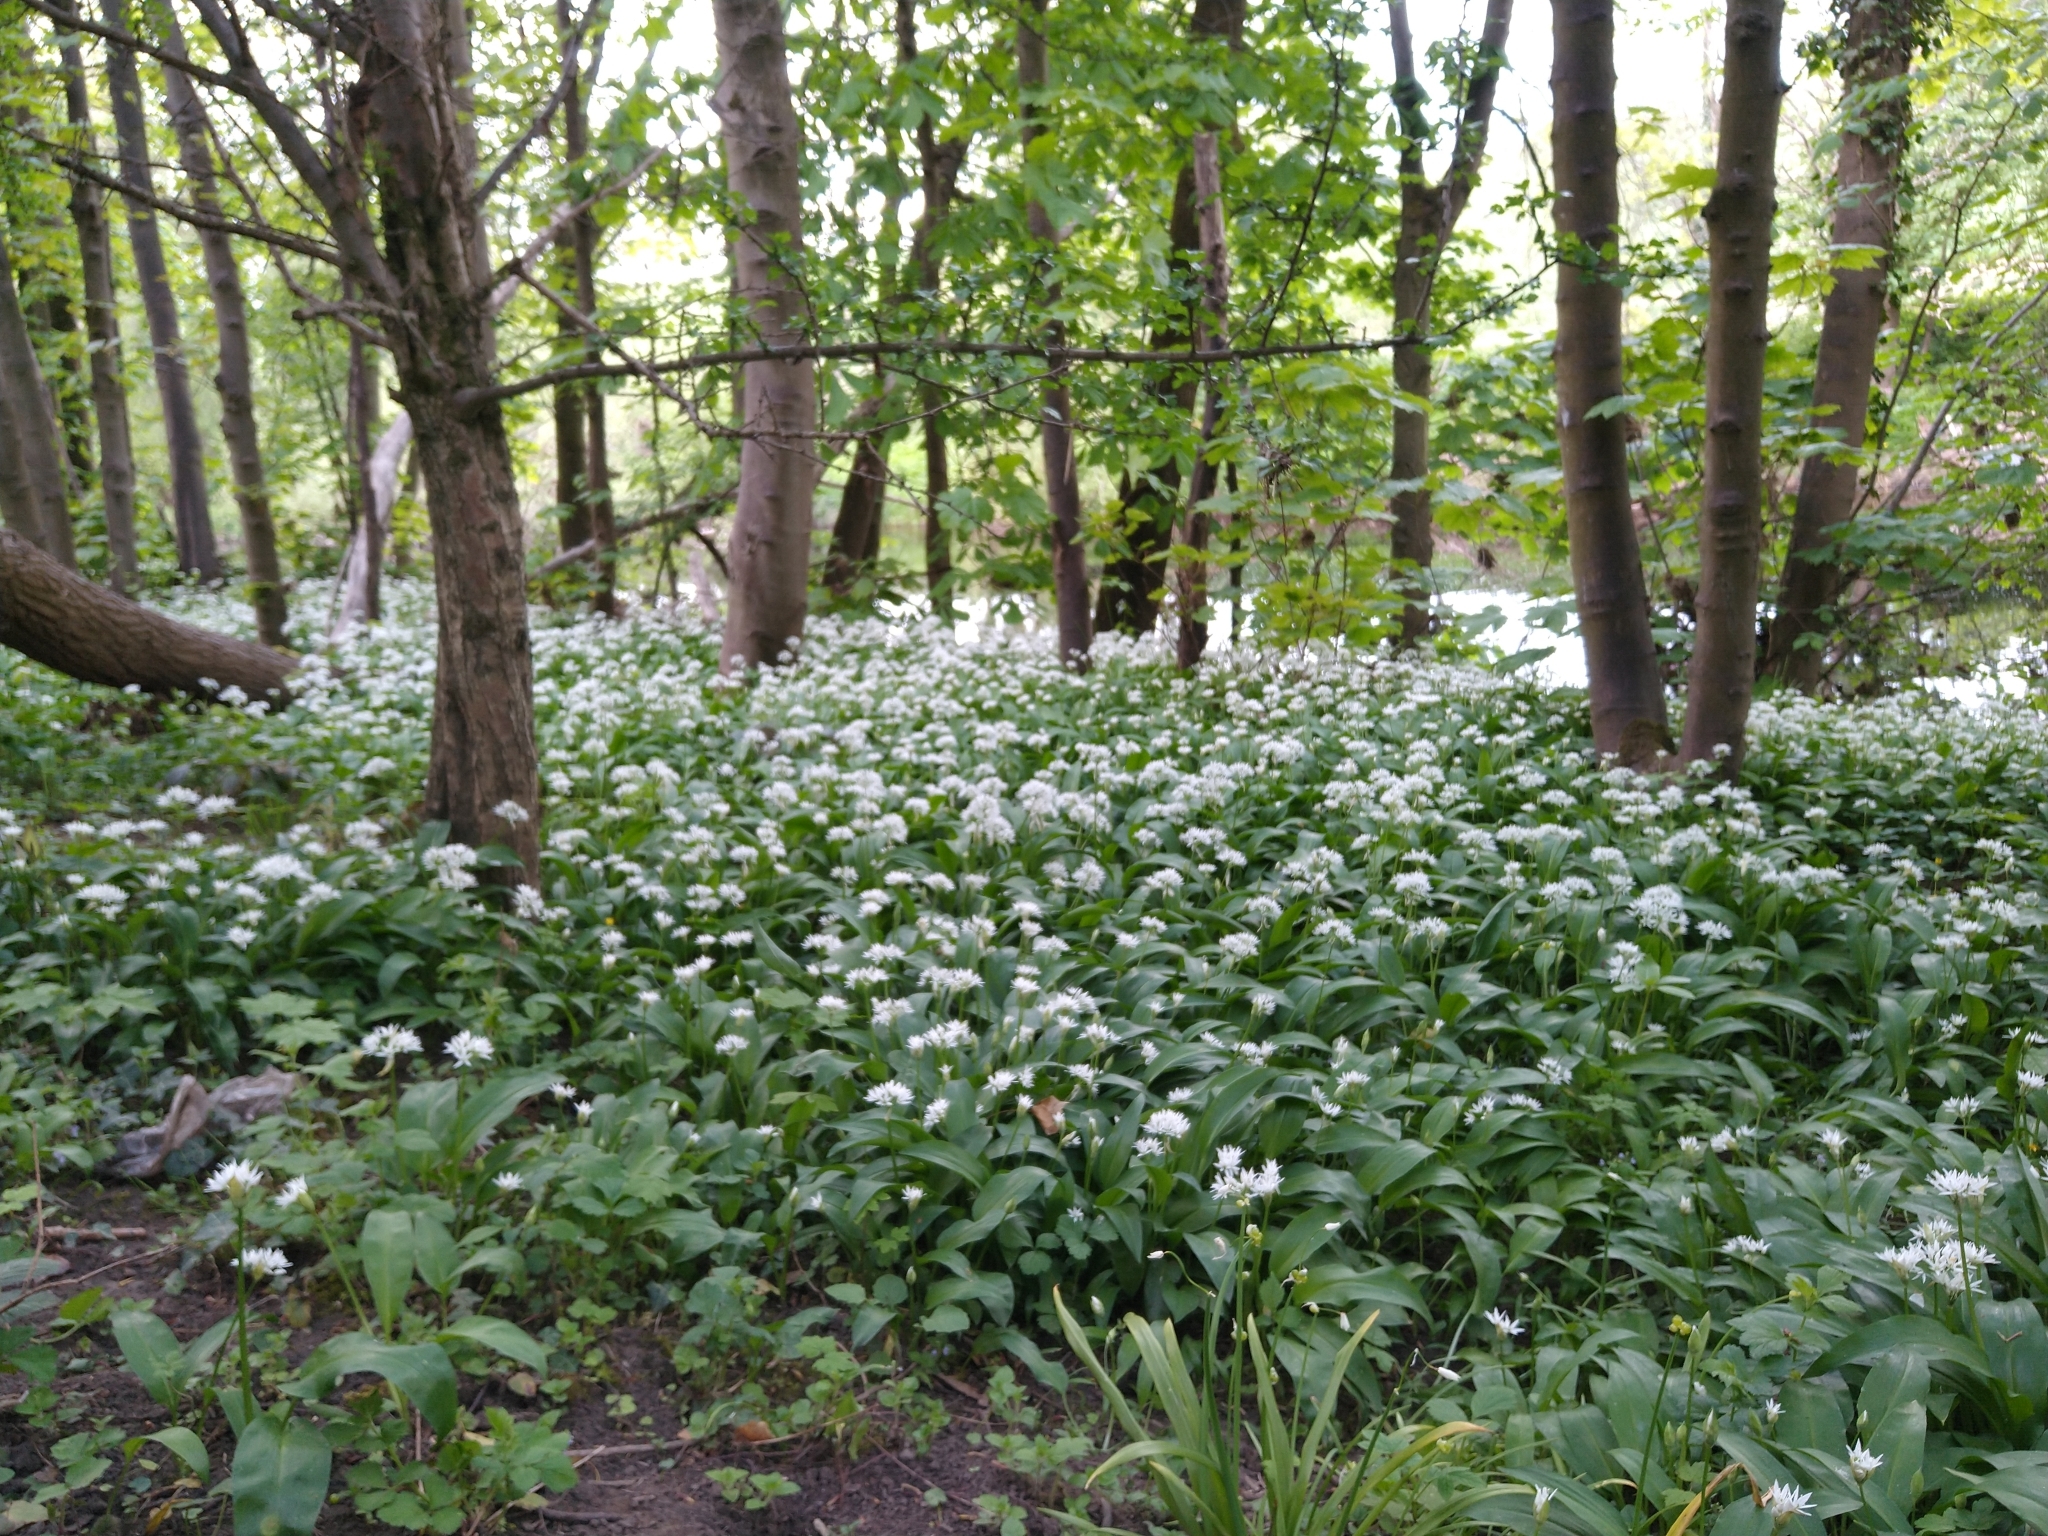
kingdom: Plantae
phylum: Tracheophyta
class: Liliopsida
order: Asparagales
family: Amaryllidaceae
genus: Allium
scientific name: Allium ursinum
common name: Ramsons
